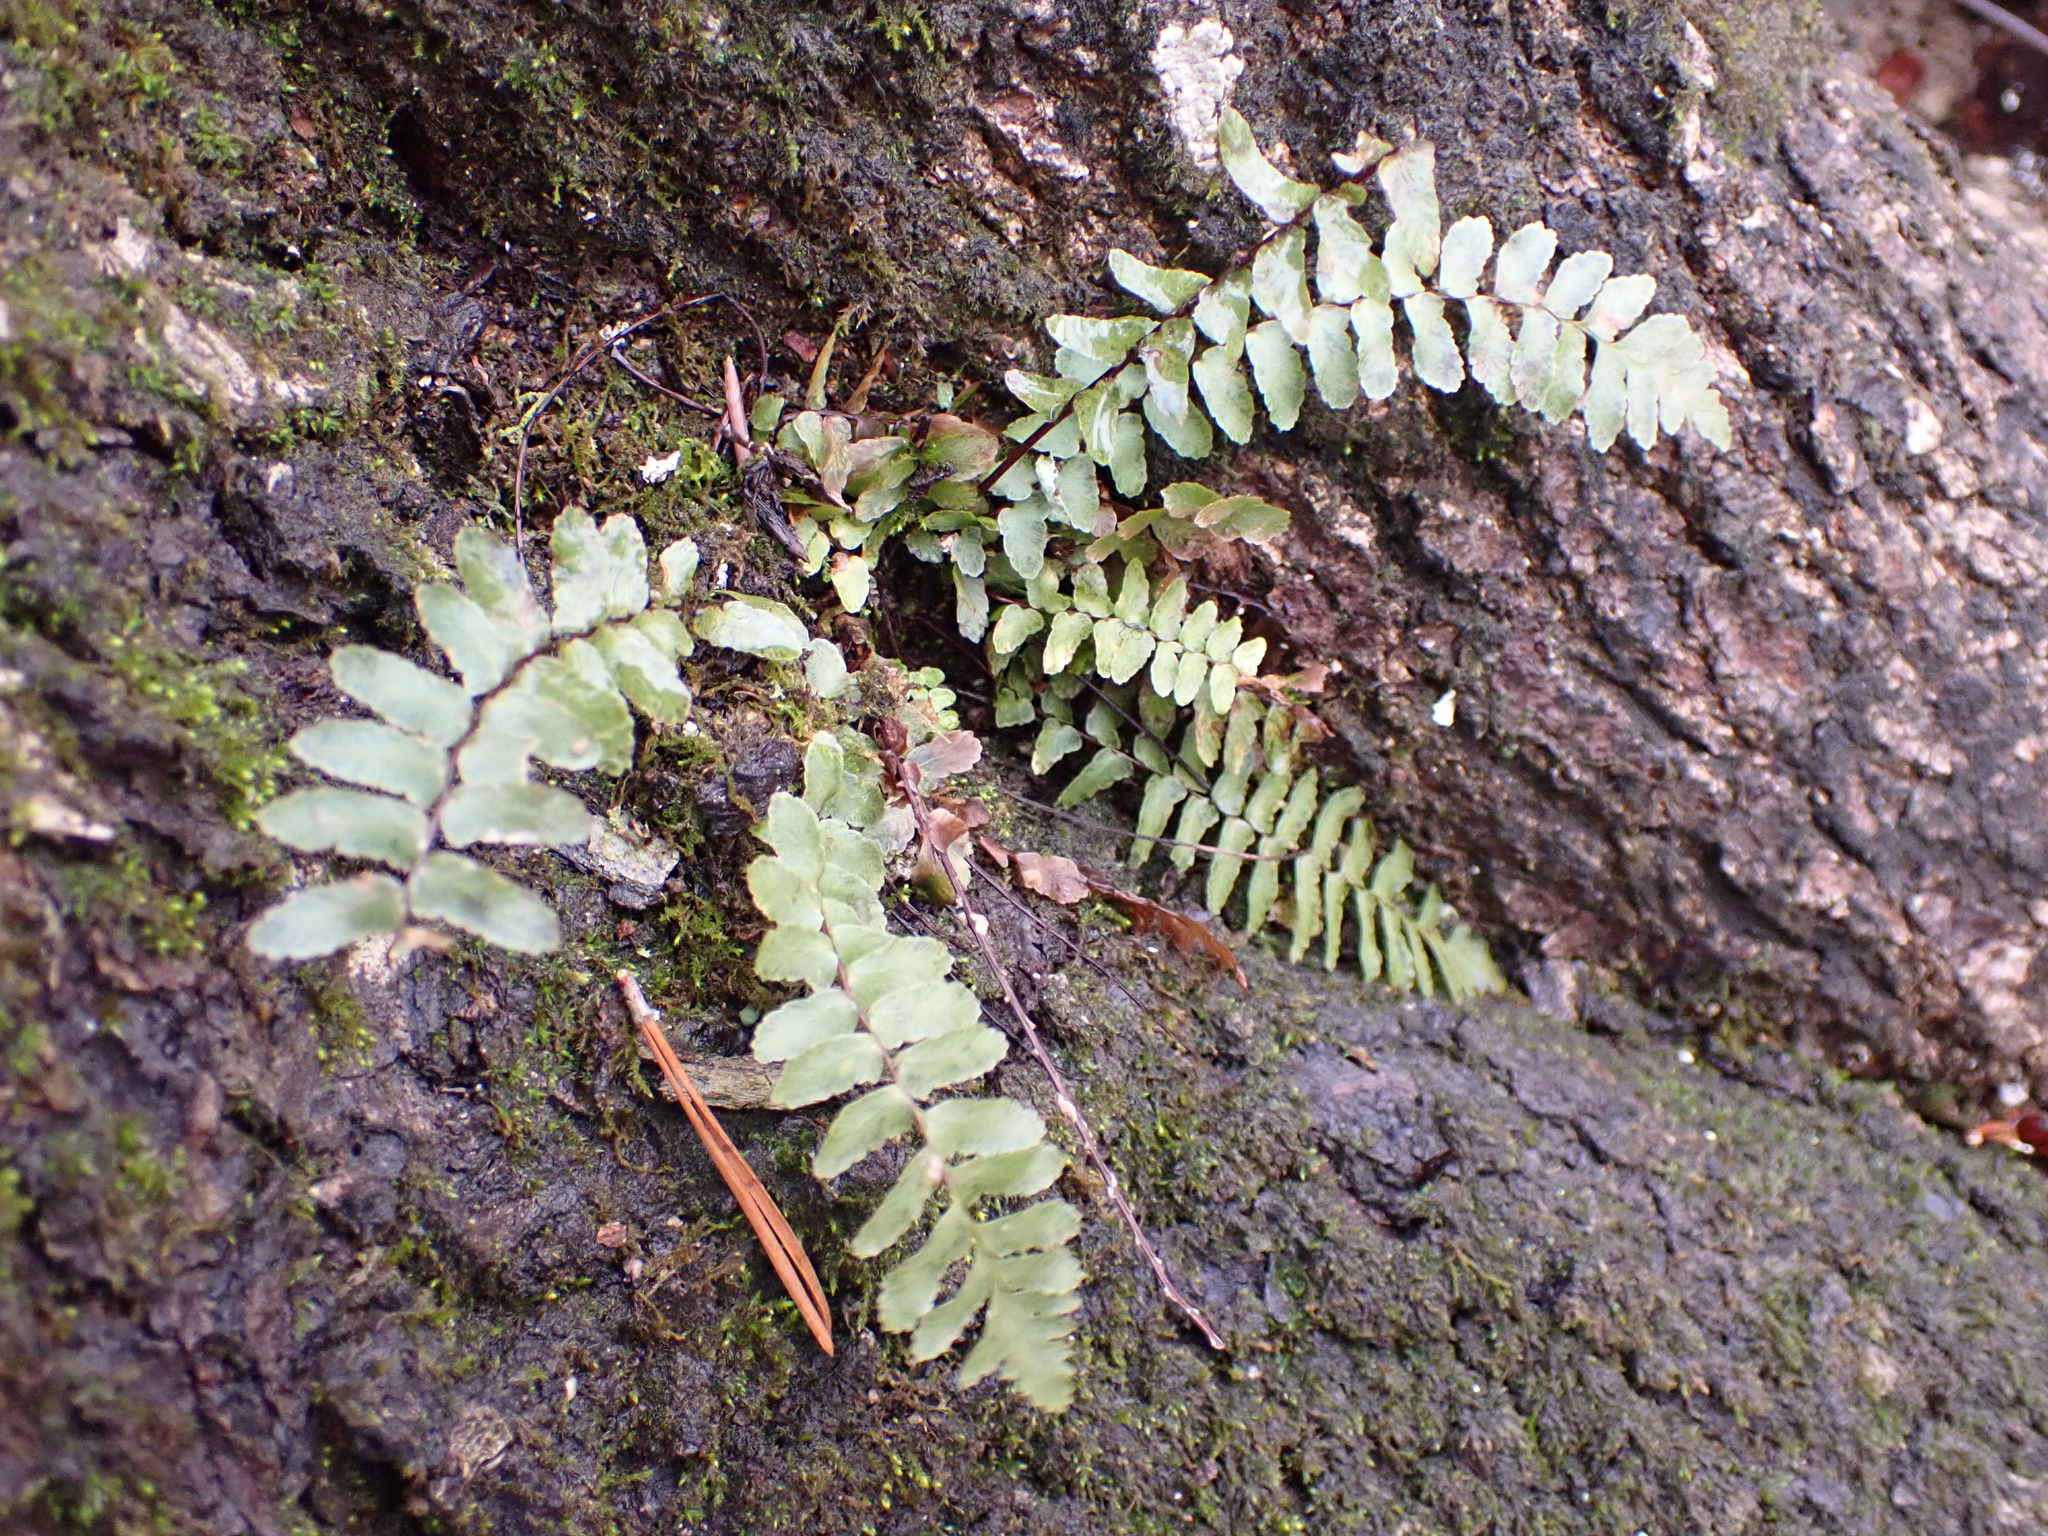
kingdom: Plantae
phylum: Tracheophyta
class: Polypodiopsida
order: Polypodiales
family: Aspleniaceae
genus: Asplenium
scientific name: Asplenium platyneuron
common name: Ebony spleenwort
